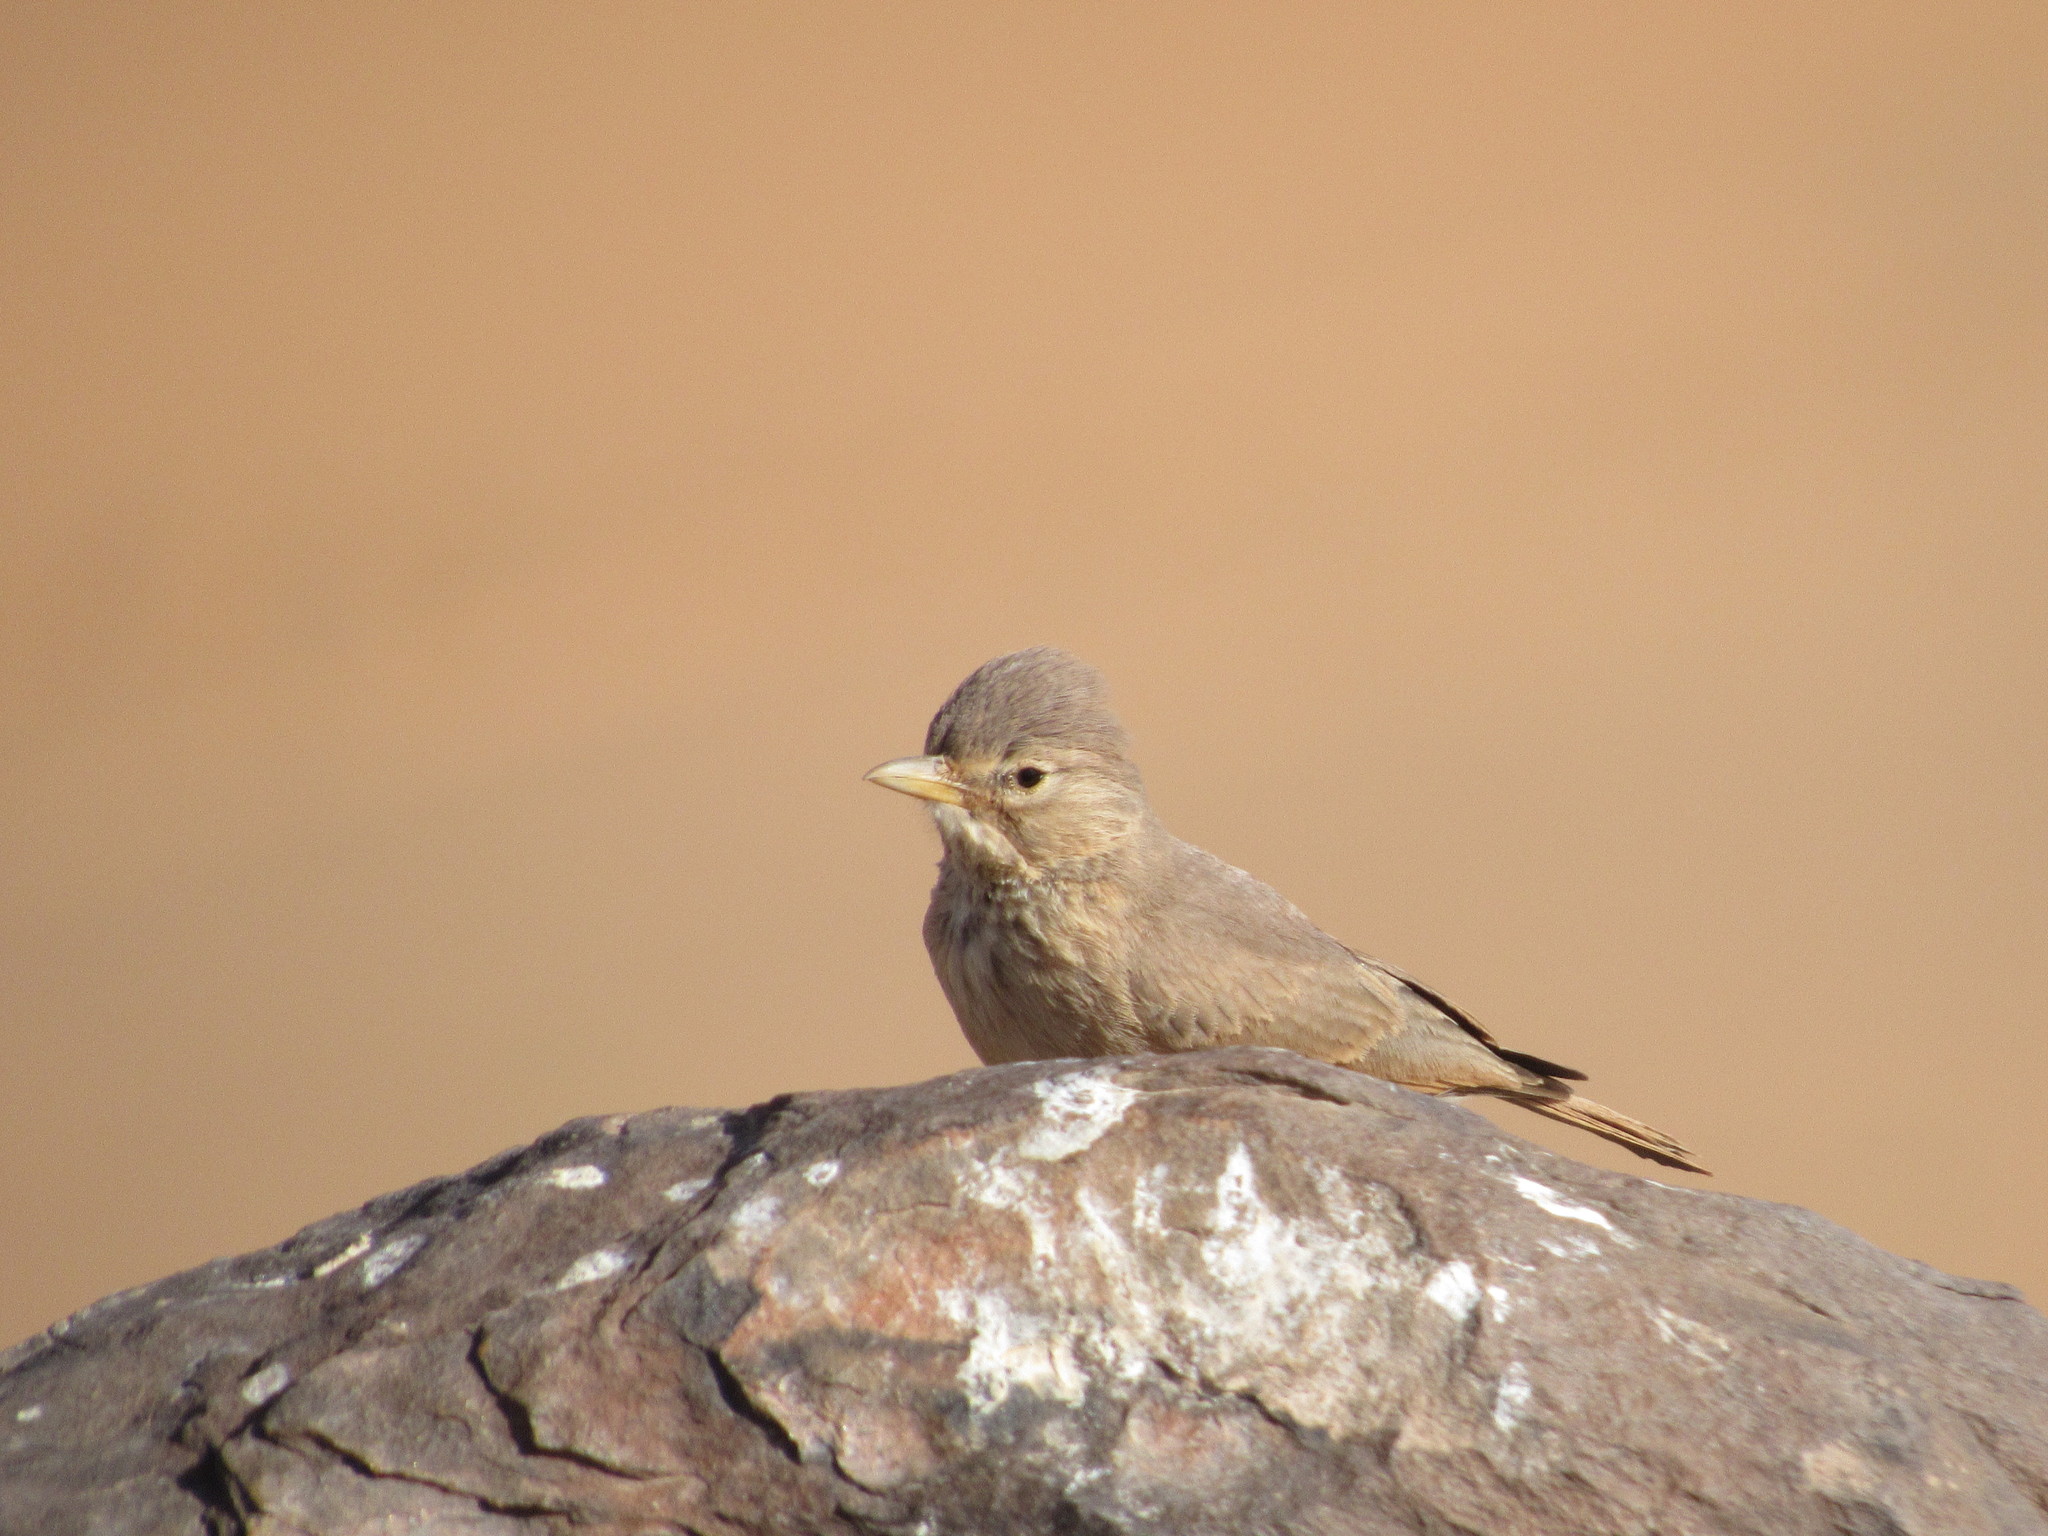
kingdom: Animalia
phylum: Chordata
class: Aves
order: Passeriformes
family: Alaudidae
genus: Ammomanes
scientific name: Ammomanes deserti
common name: Desert lark
